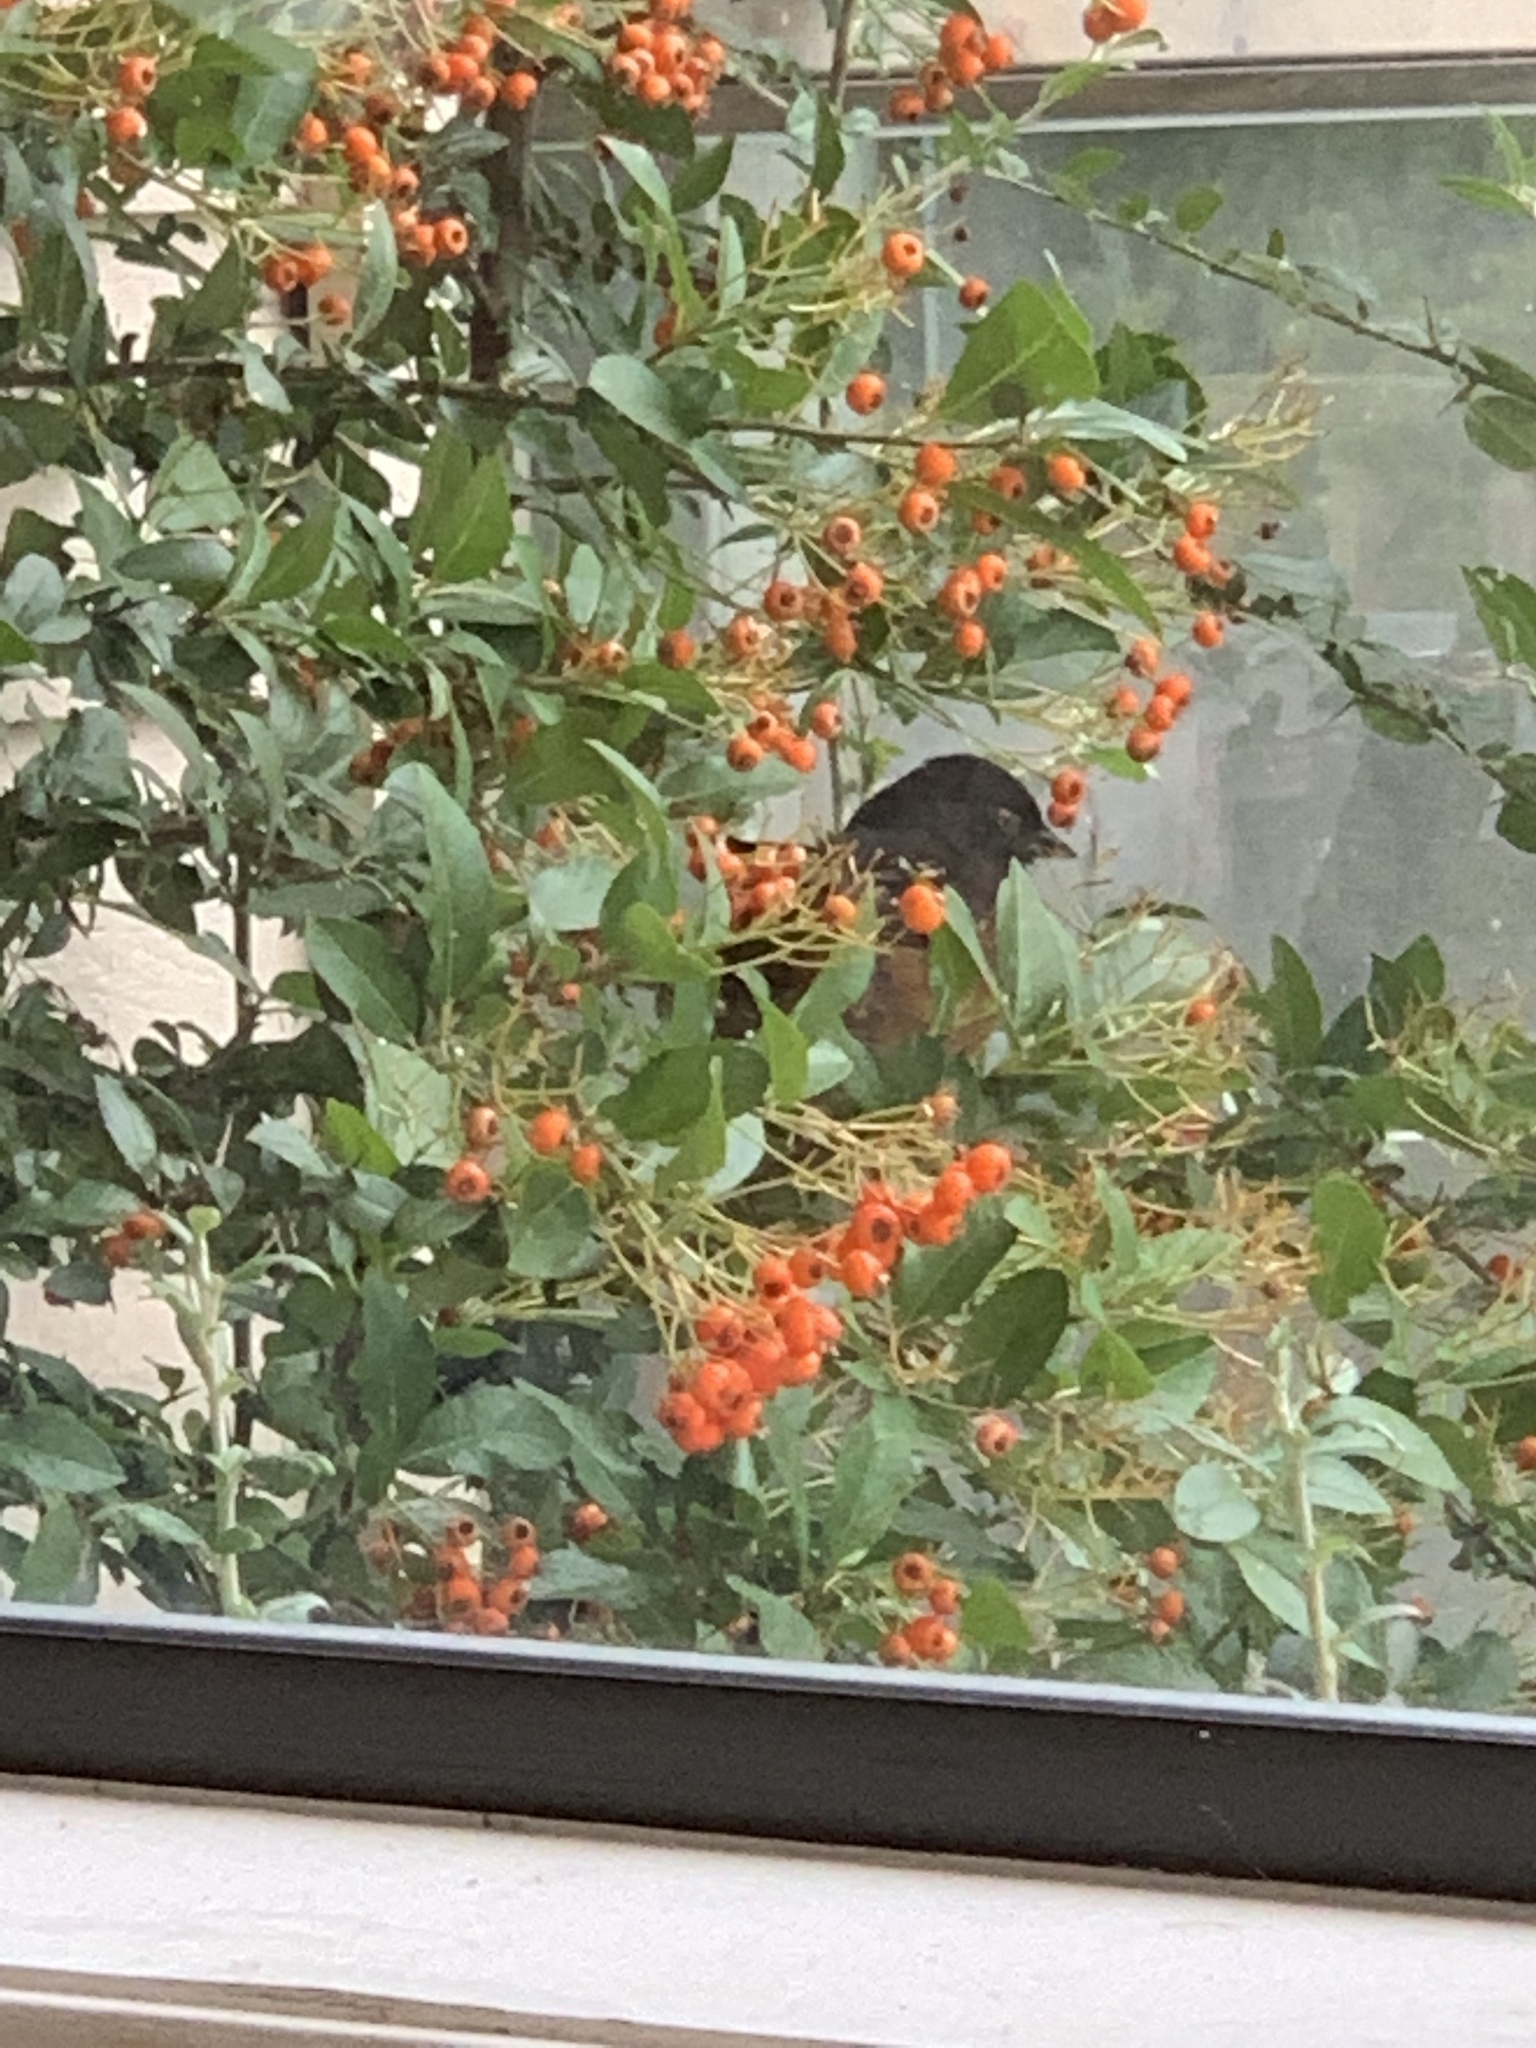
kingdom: Animalia
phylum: Chordata
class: Aves
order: Passeriformes
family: Passerellidae
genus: Pipilo
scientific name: Pipilo maculatus
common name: Spotted towhee
